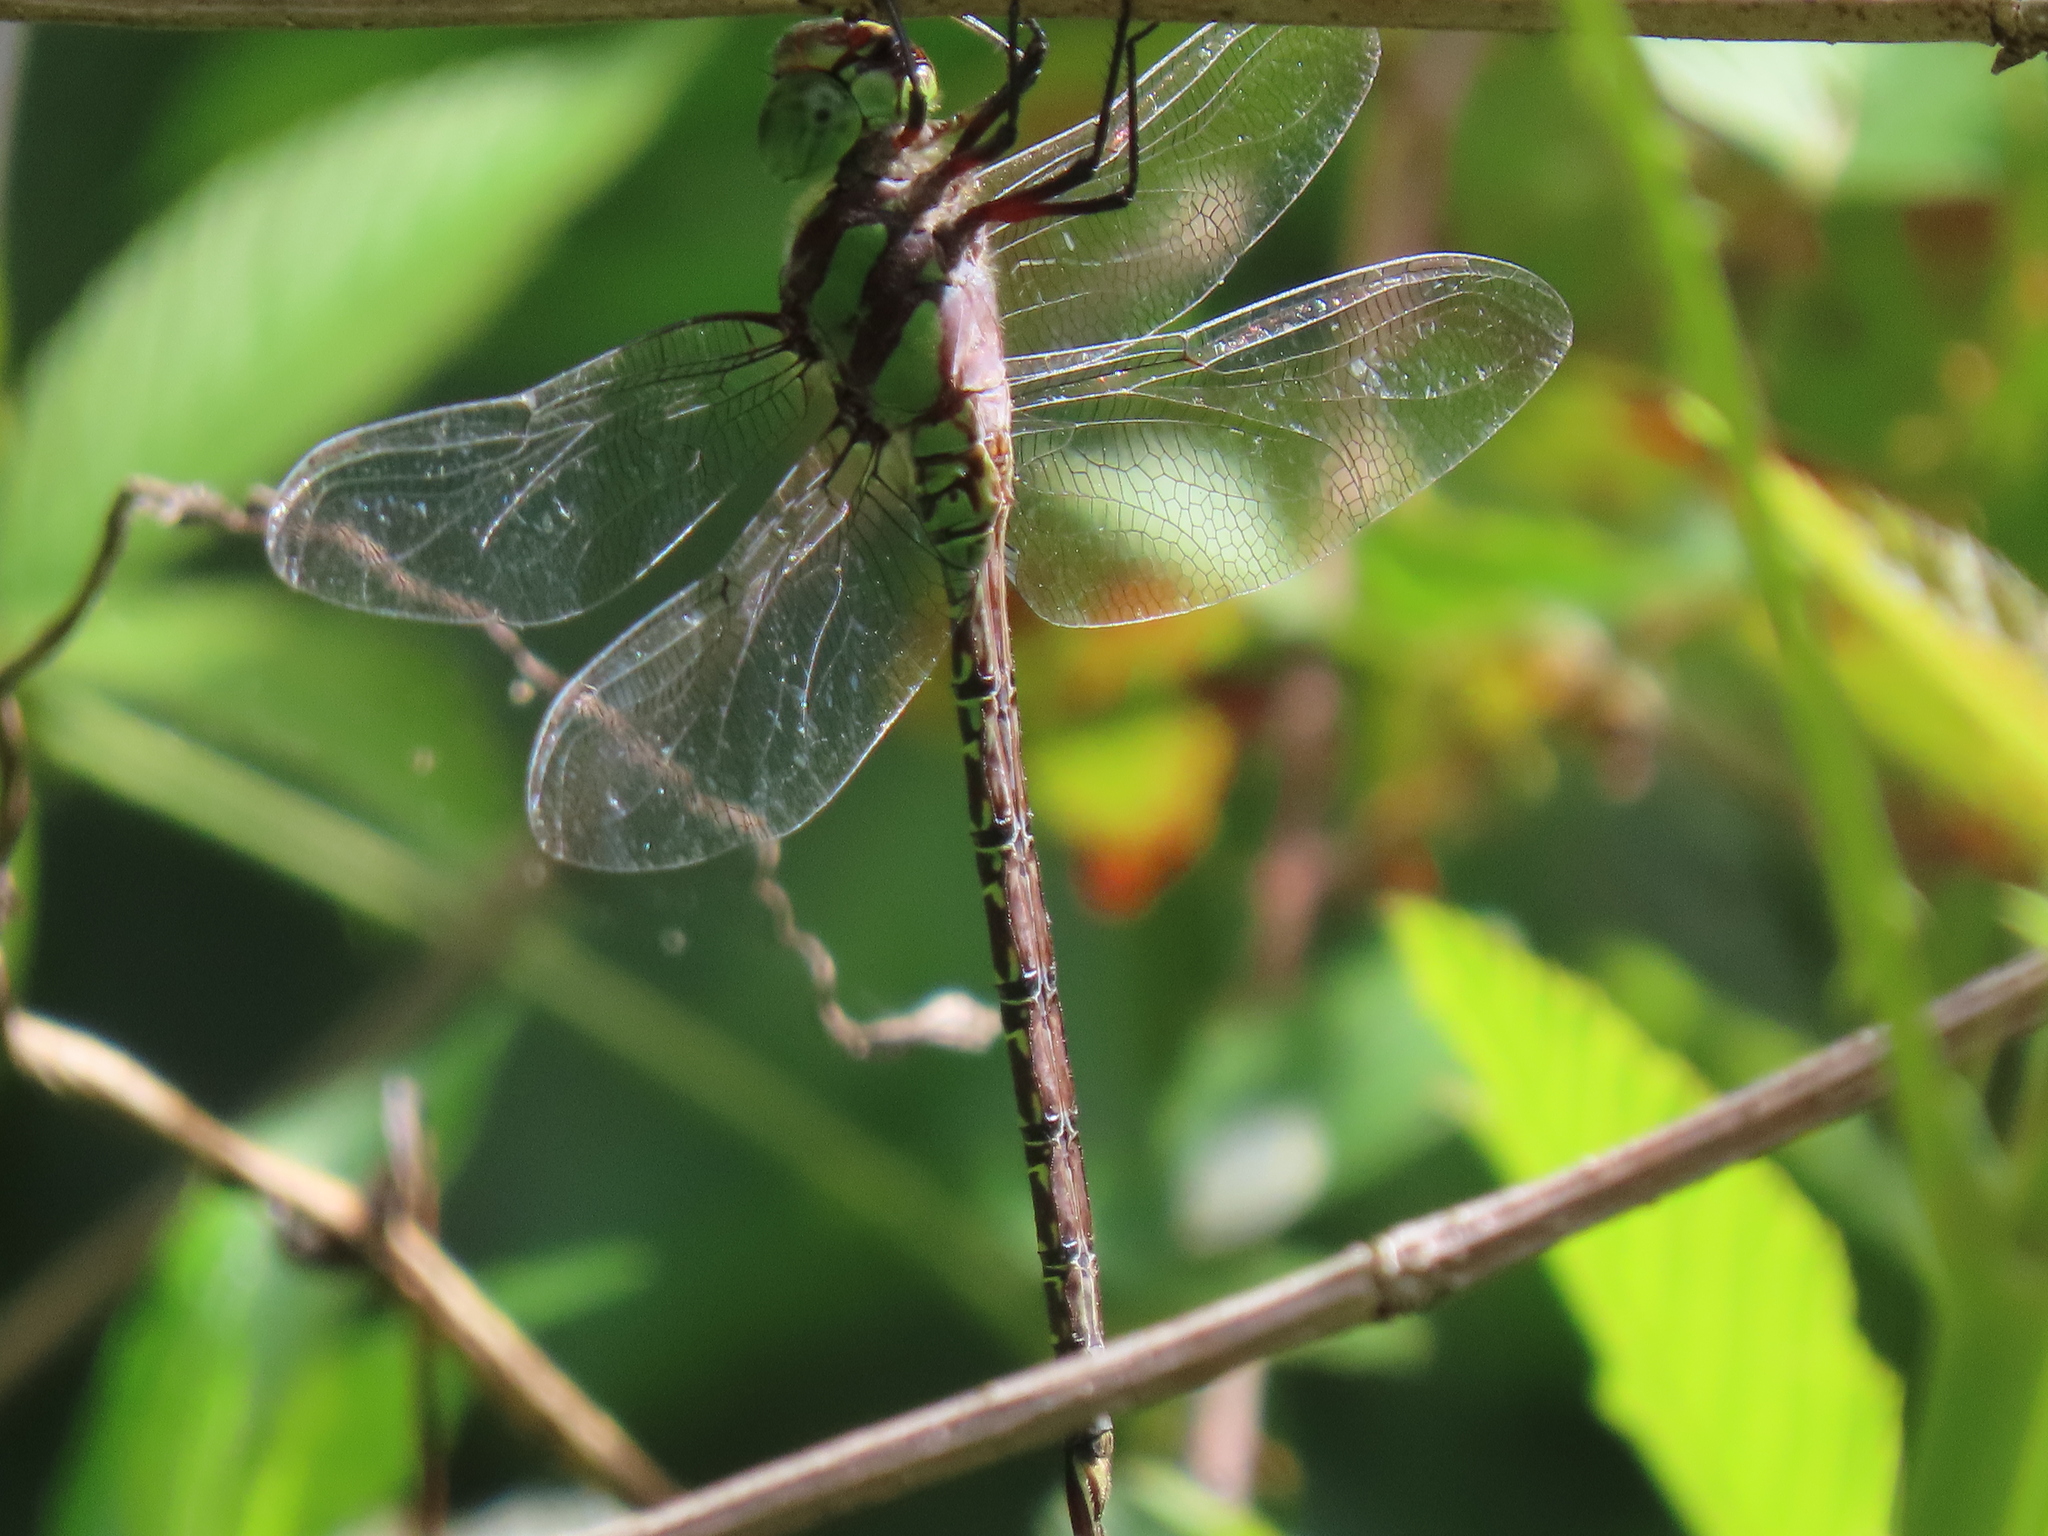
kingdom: Animalia
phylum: Arthropoda
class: Insecta
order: Odonata
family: Aeshnidae
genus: Coryphaeschna
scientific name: Coryphaeschna ingens
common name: Regal darner
